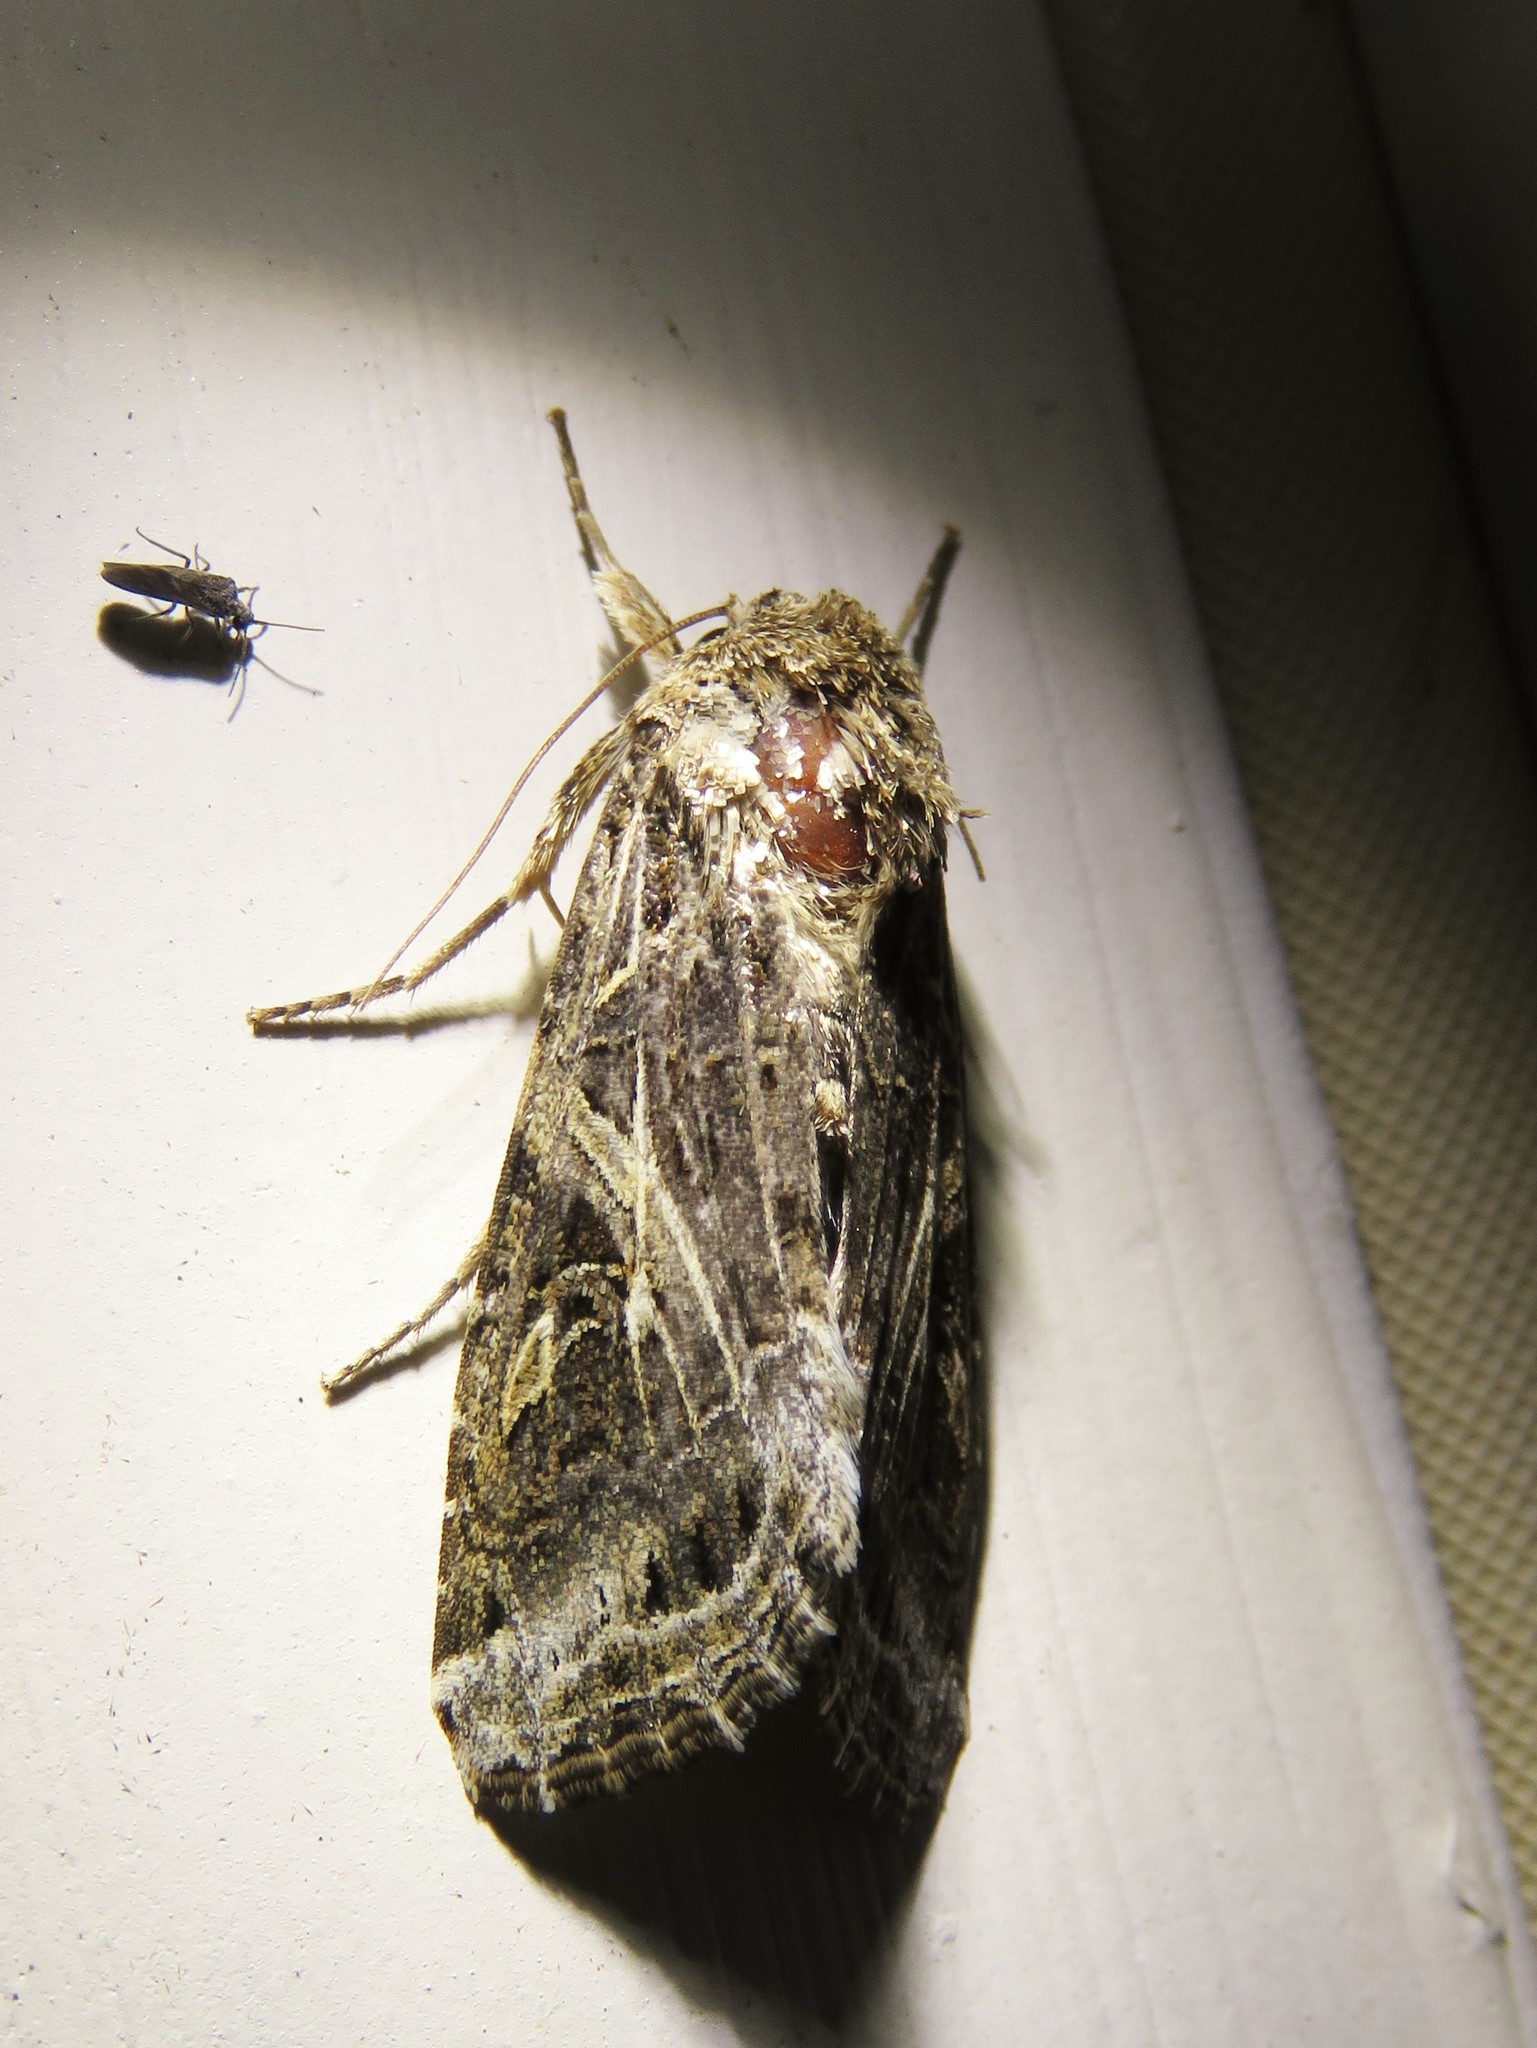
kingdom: Animalia
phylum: Arthropoda
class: Insecta
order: Lepidoptera
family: Noctuidae
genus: Spodoptera
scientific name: Spodoptera ornithogalli
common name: Yellow-striped armyworm
